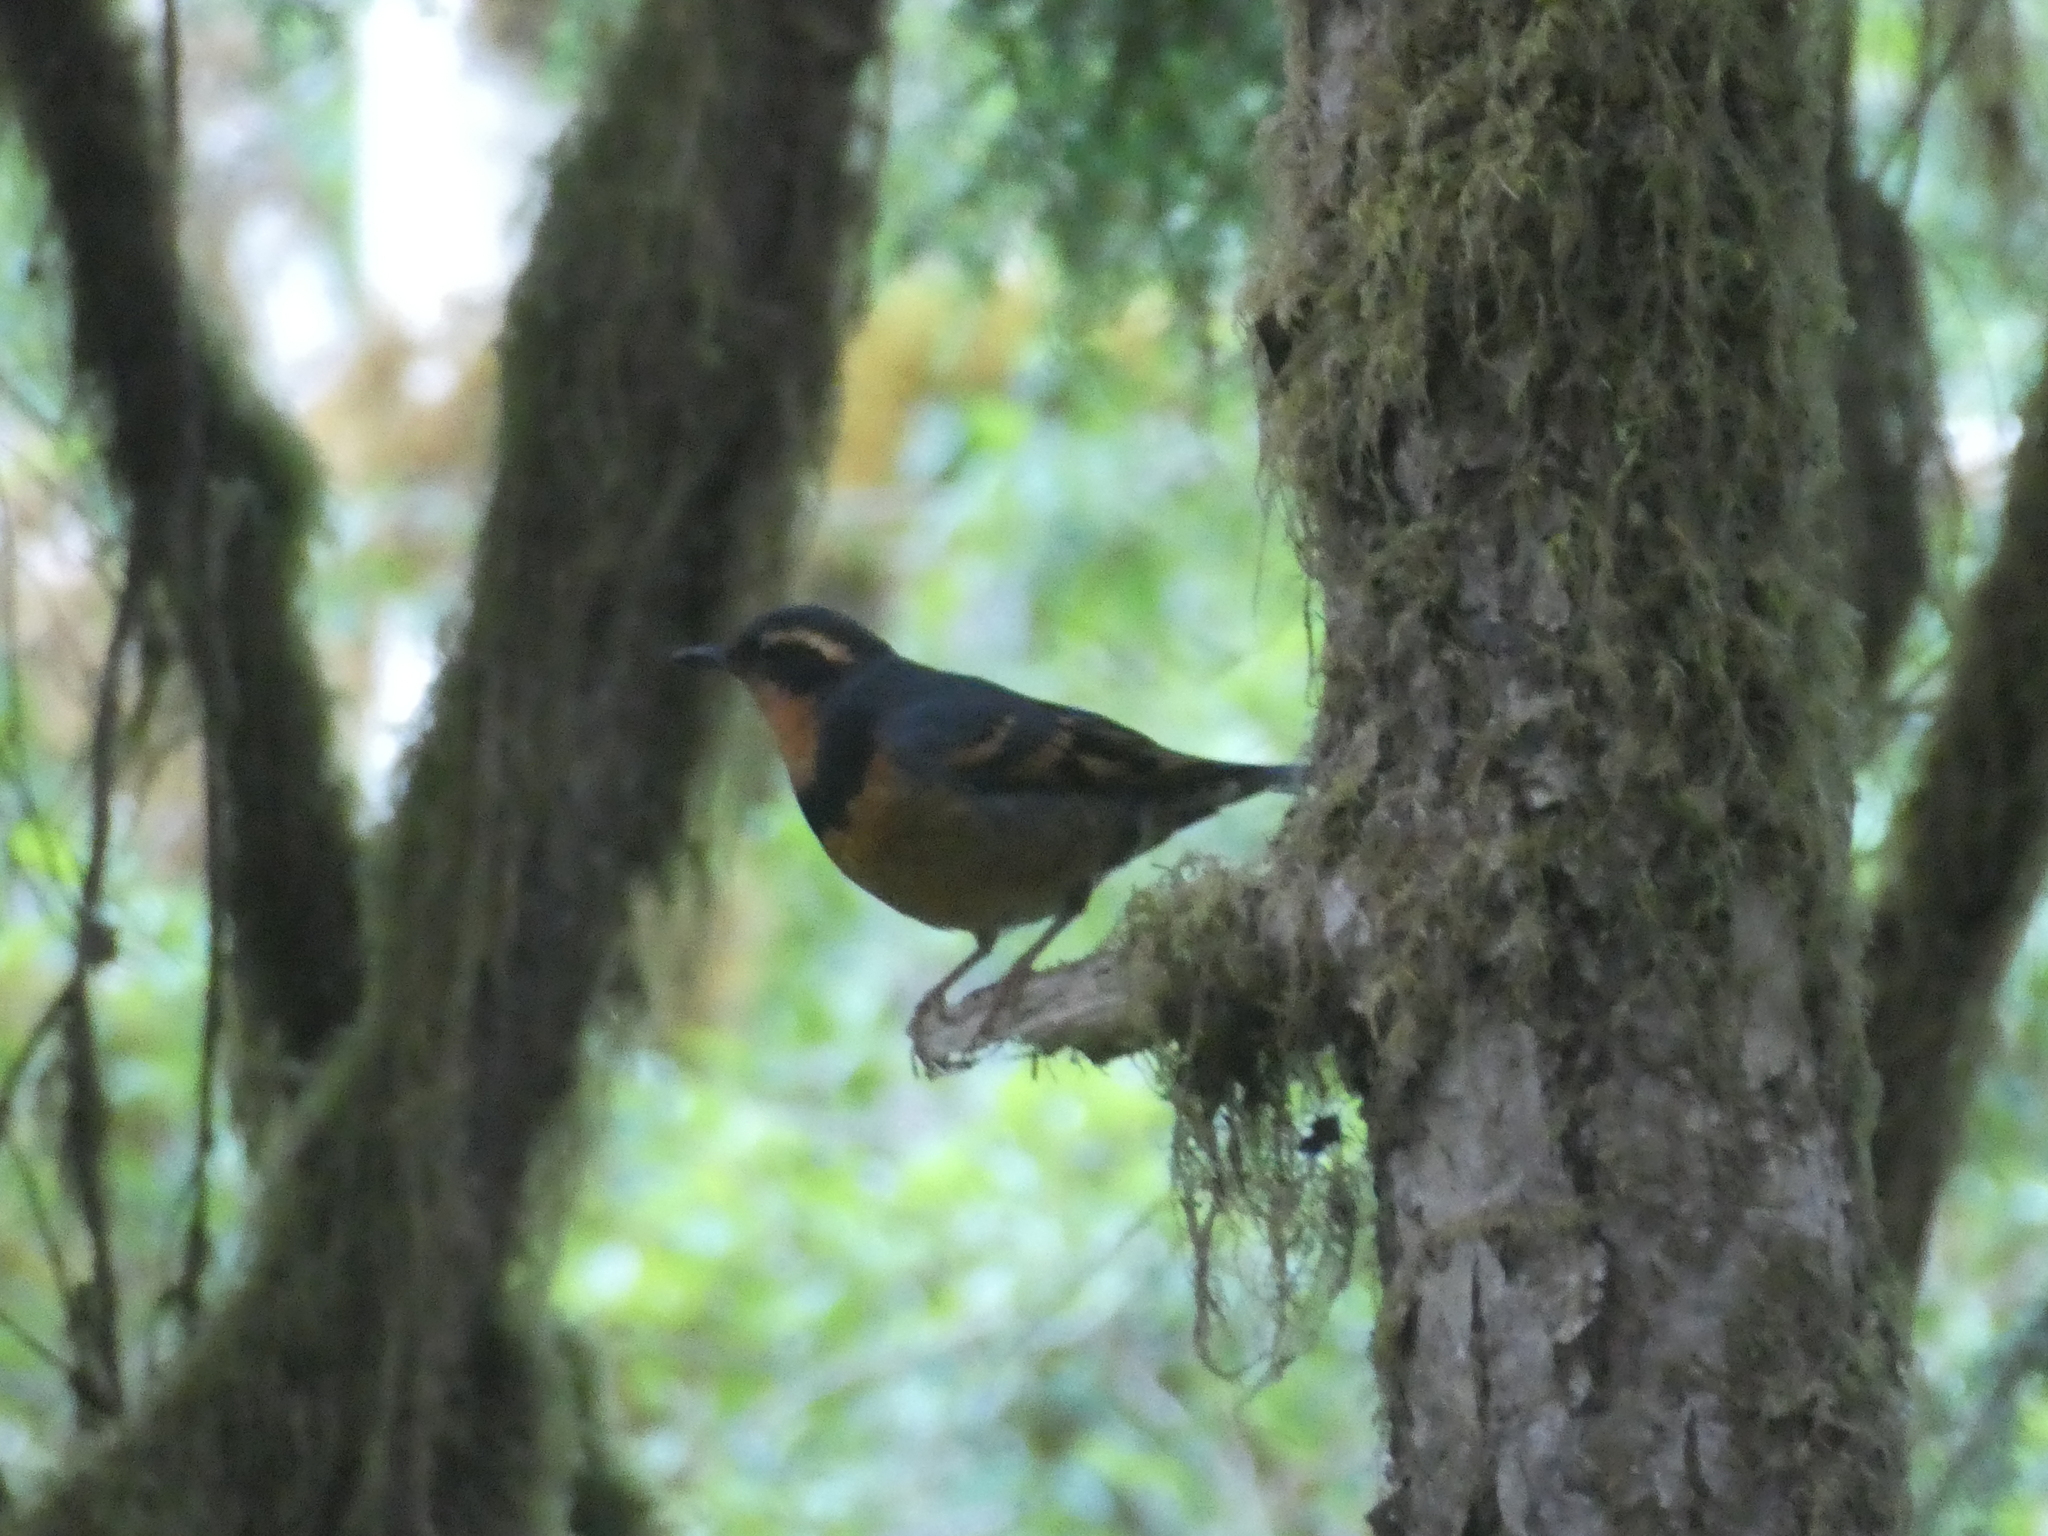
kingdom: Animalia
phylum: Chordata
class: Aves
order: Passeriformes
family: Turdidae
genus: Ixoreus
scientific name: Ixoreus naevius
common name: Varied thrush
